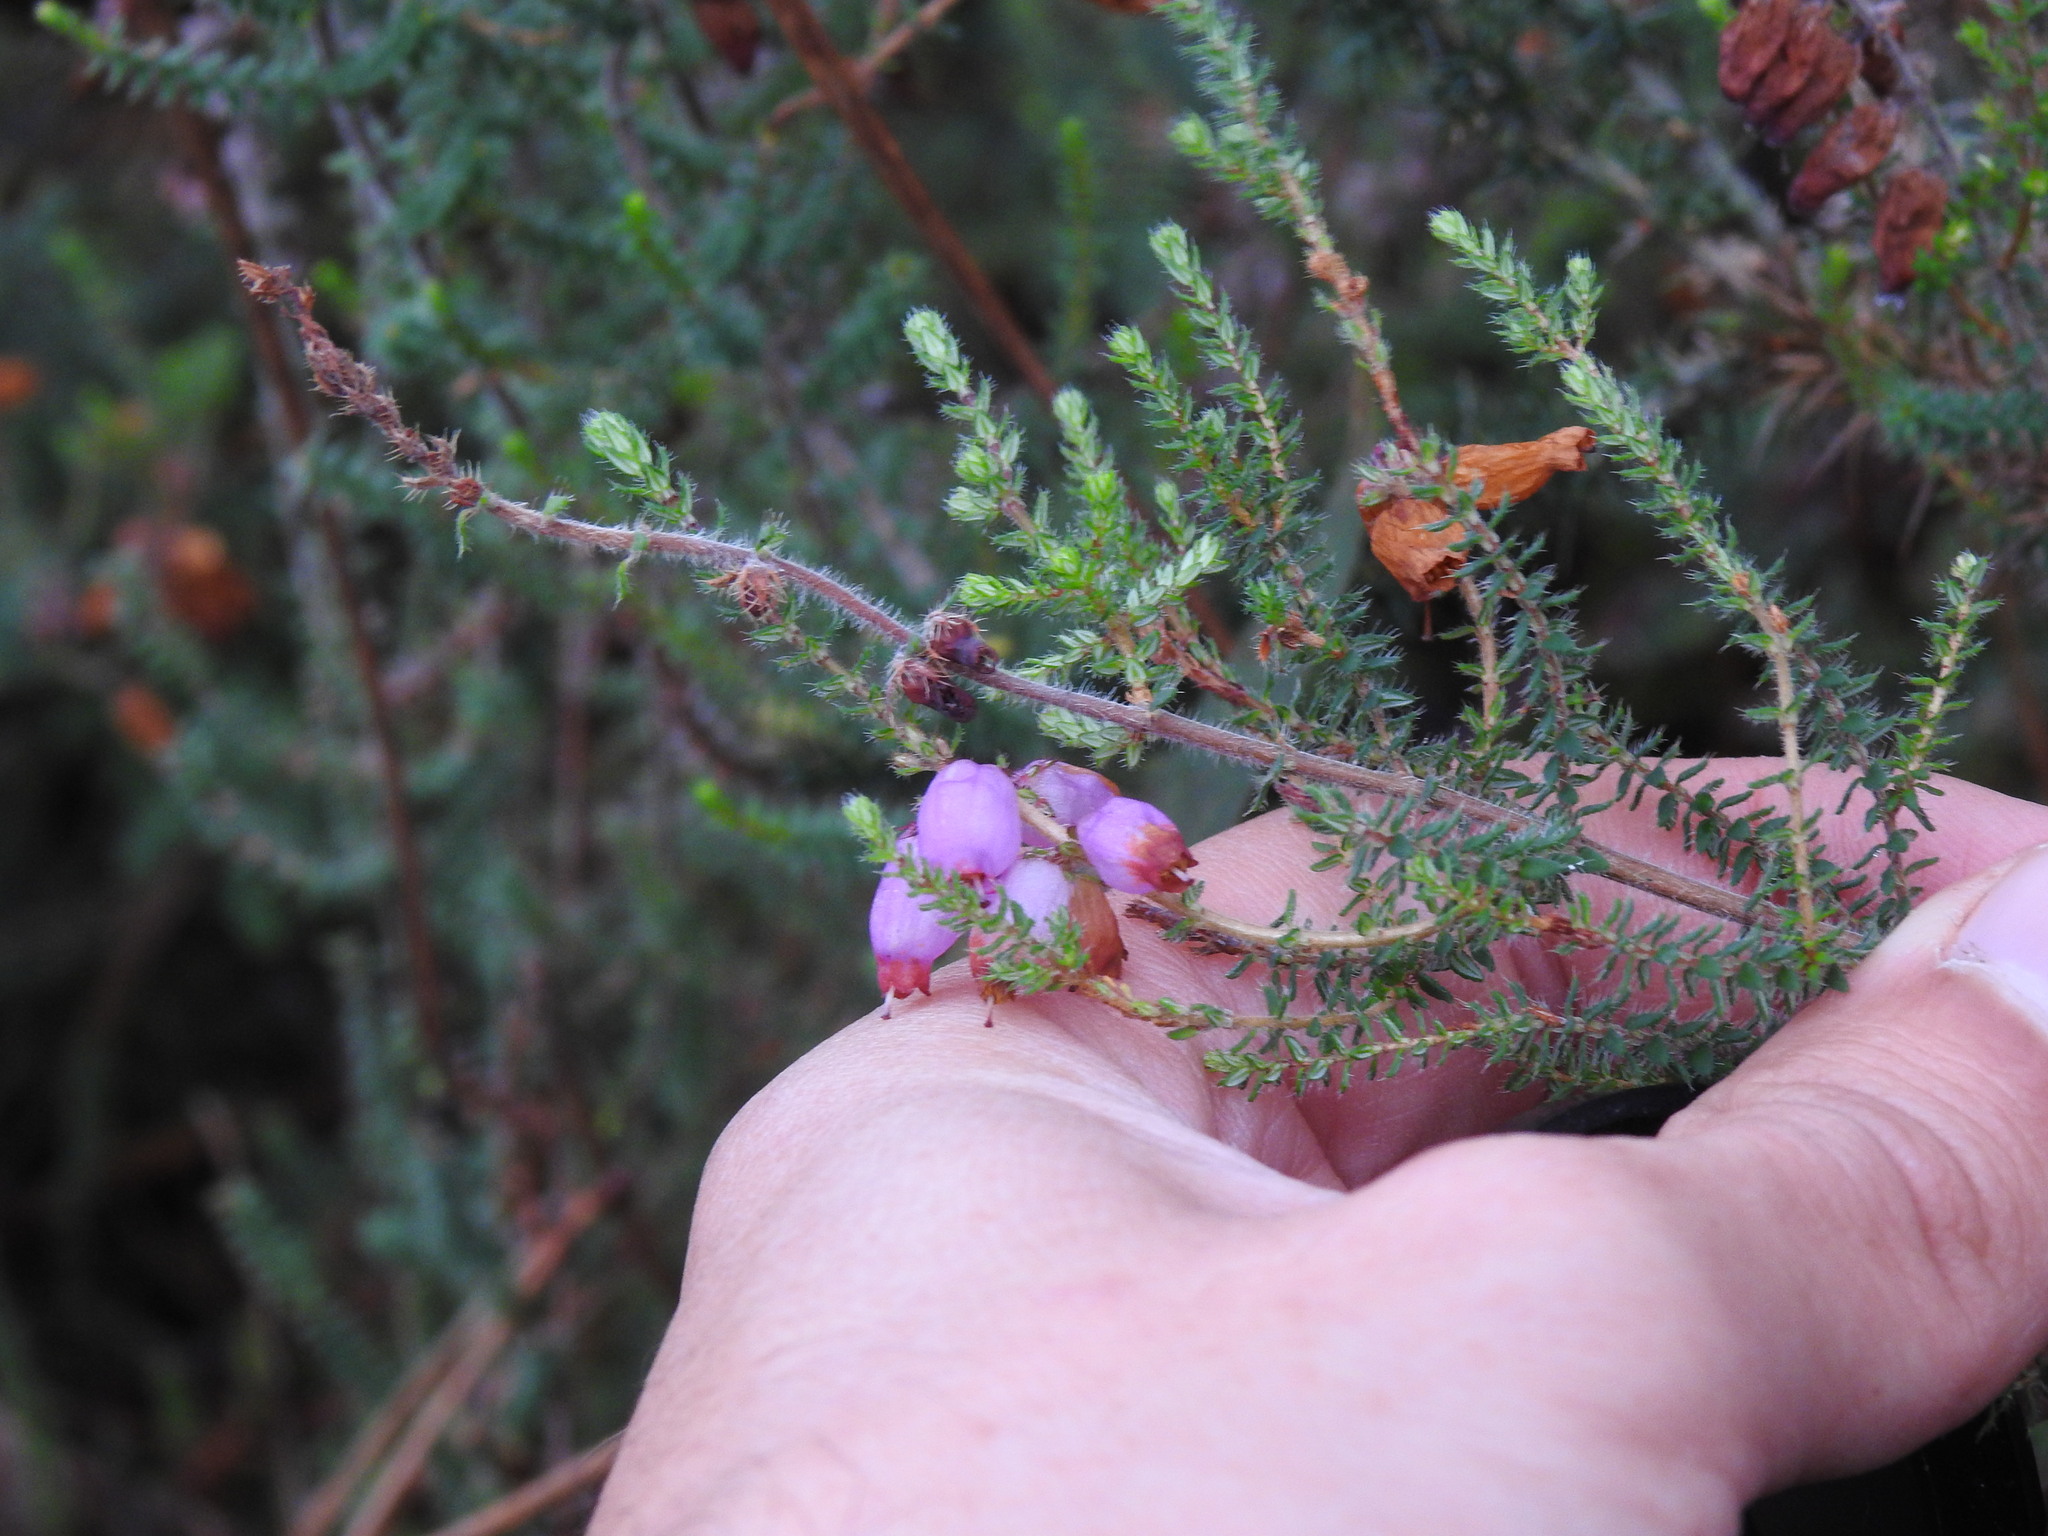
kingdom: Plantae
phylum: Tracheophyta
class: Magnoliopsida
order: Ericales
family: Ericaceae
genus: Erica
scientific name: Erica ciliaris
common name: Dorset heath
